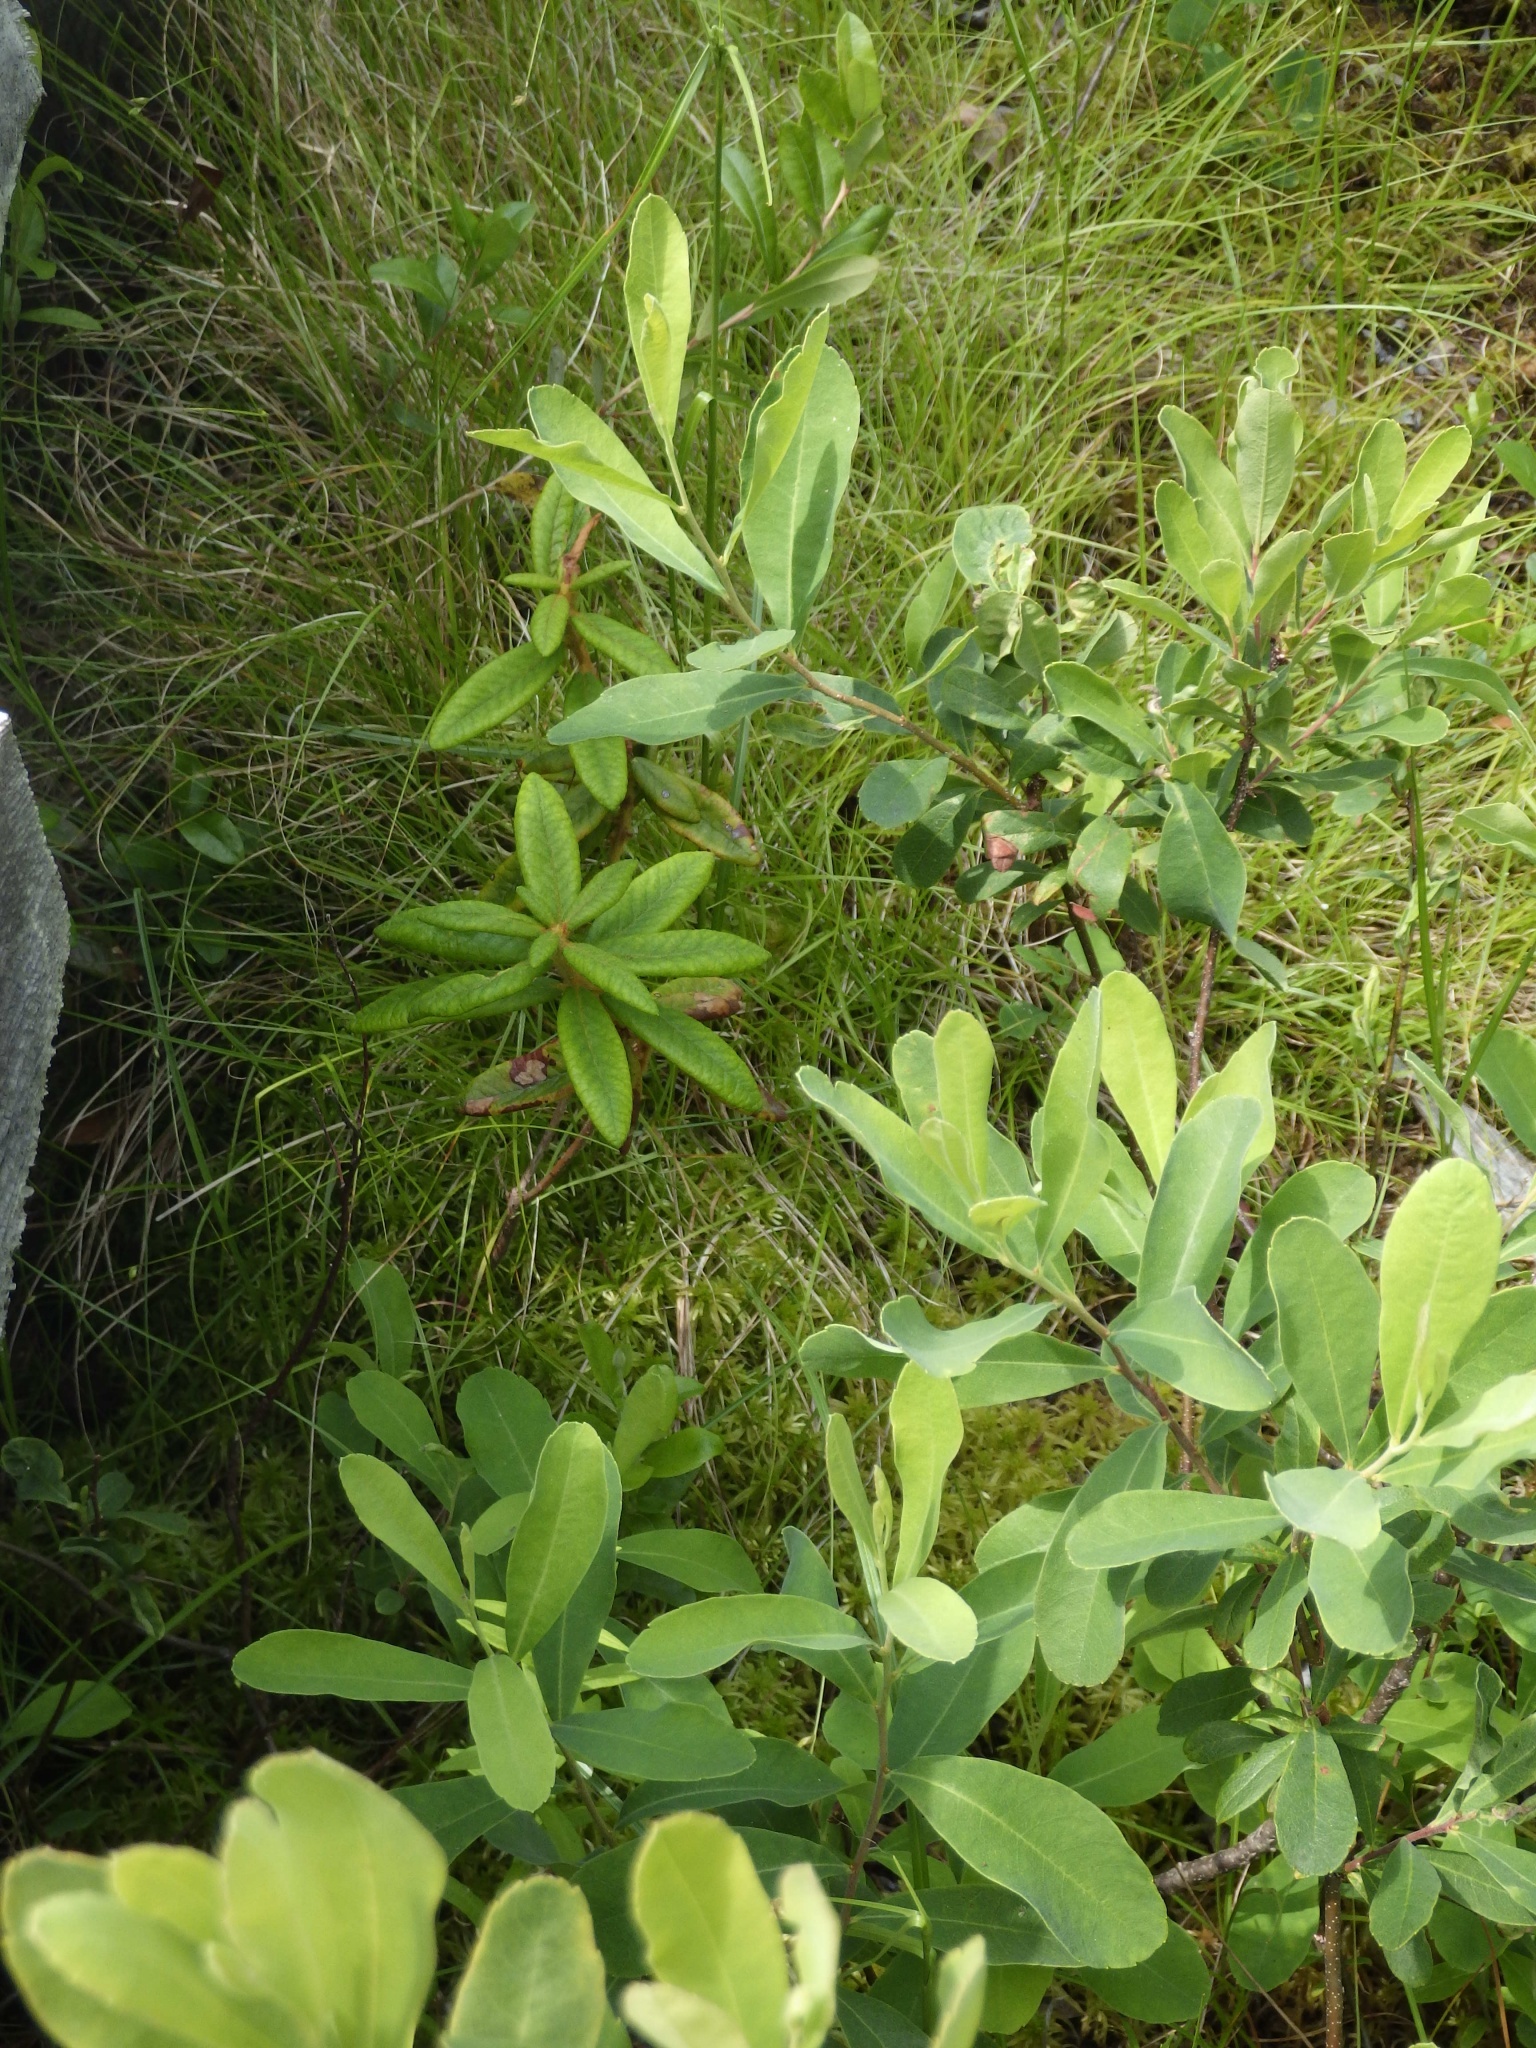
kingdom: Plantae
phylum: Tracheophyta
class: Magnoliopsida
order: Fagales
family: Myricaceae
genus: Myrica
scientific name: Myrica gale
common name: Sweet gale
